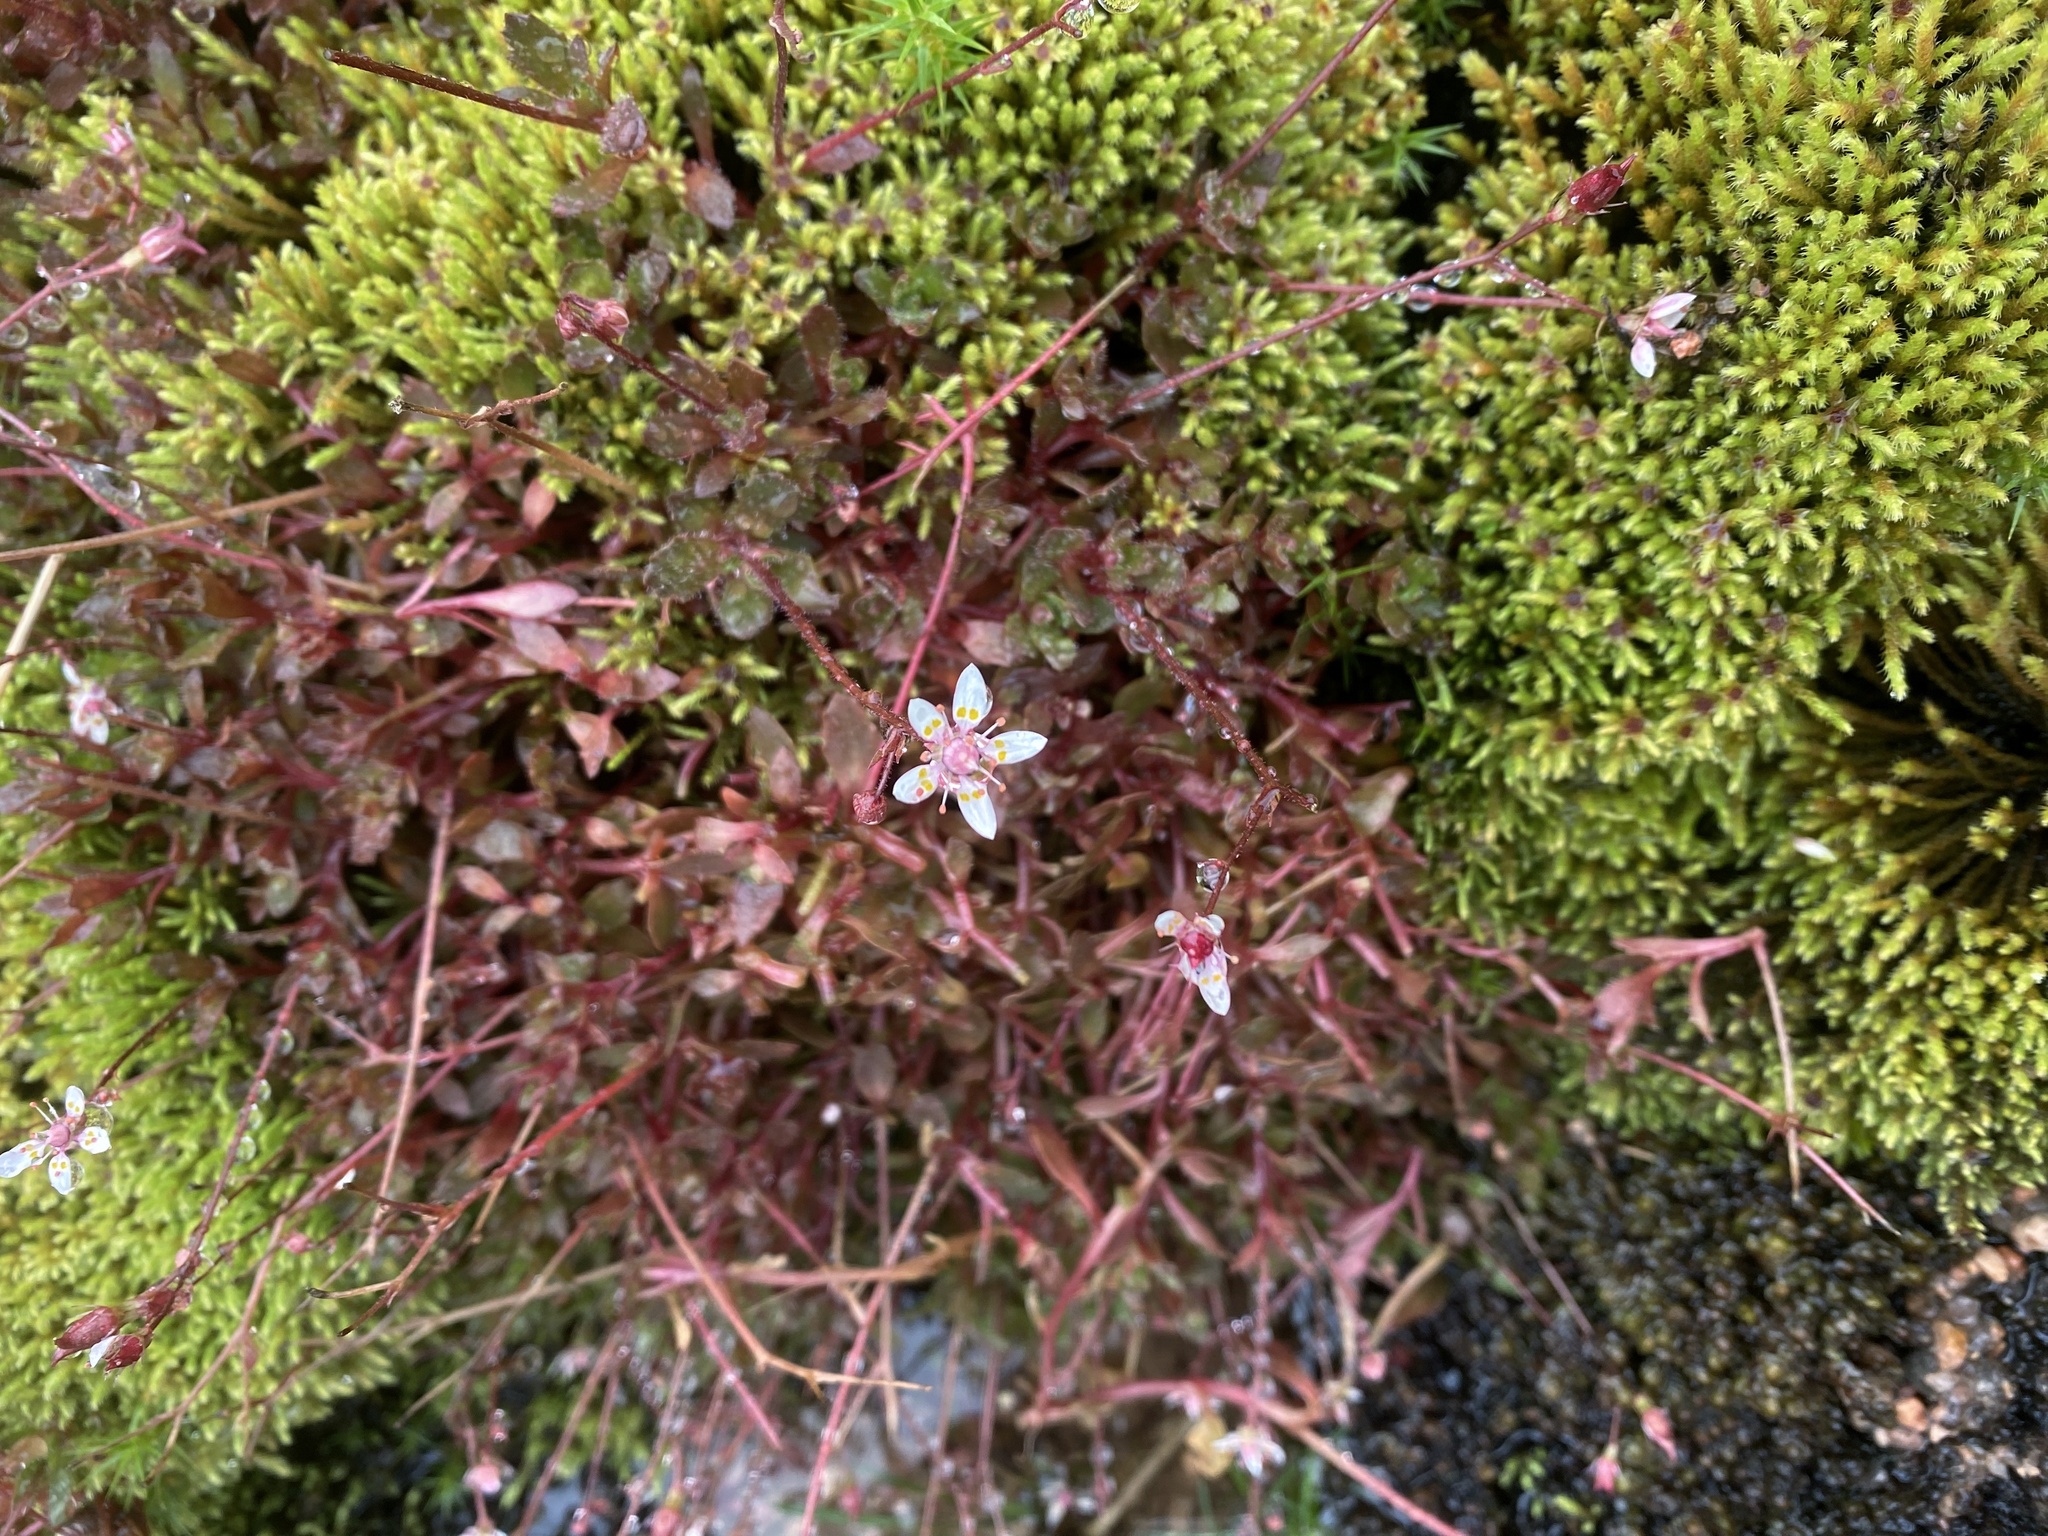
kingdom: Plantae
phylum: Tracheophyta
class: Magnoliopsida
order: Saxifragales
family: Saxifragaceae
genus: Micranthes
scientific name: Micranthes stellaris
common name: Starry saxifrage
